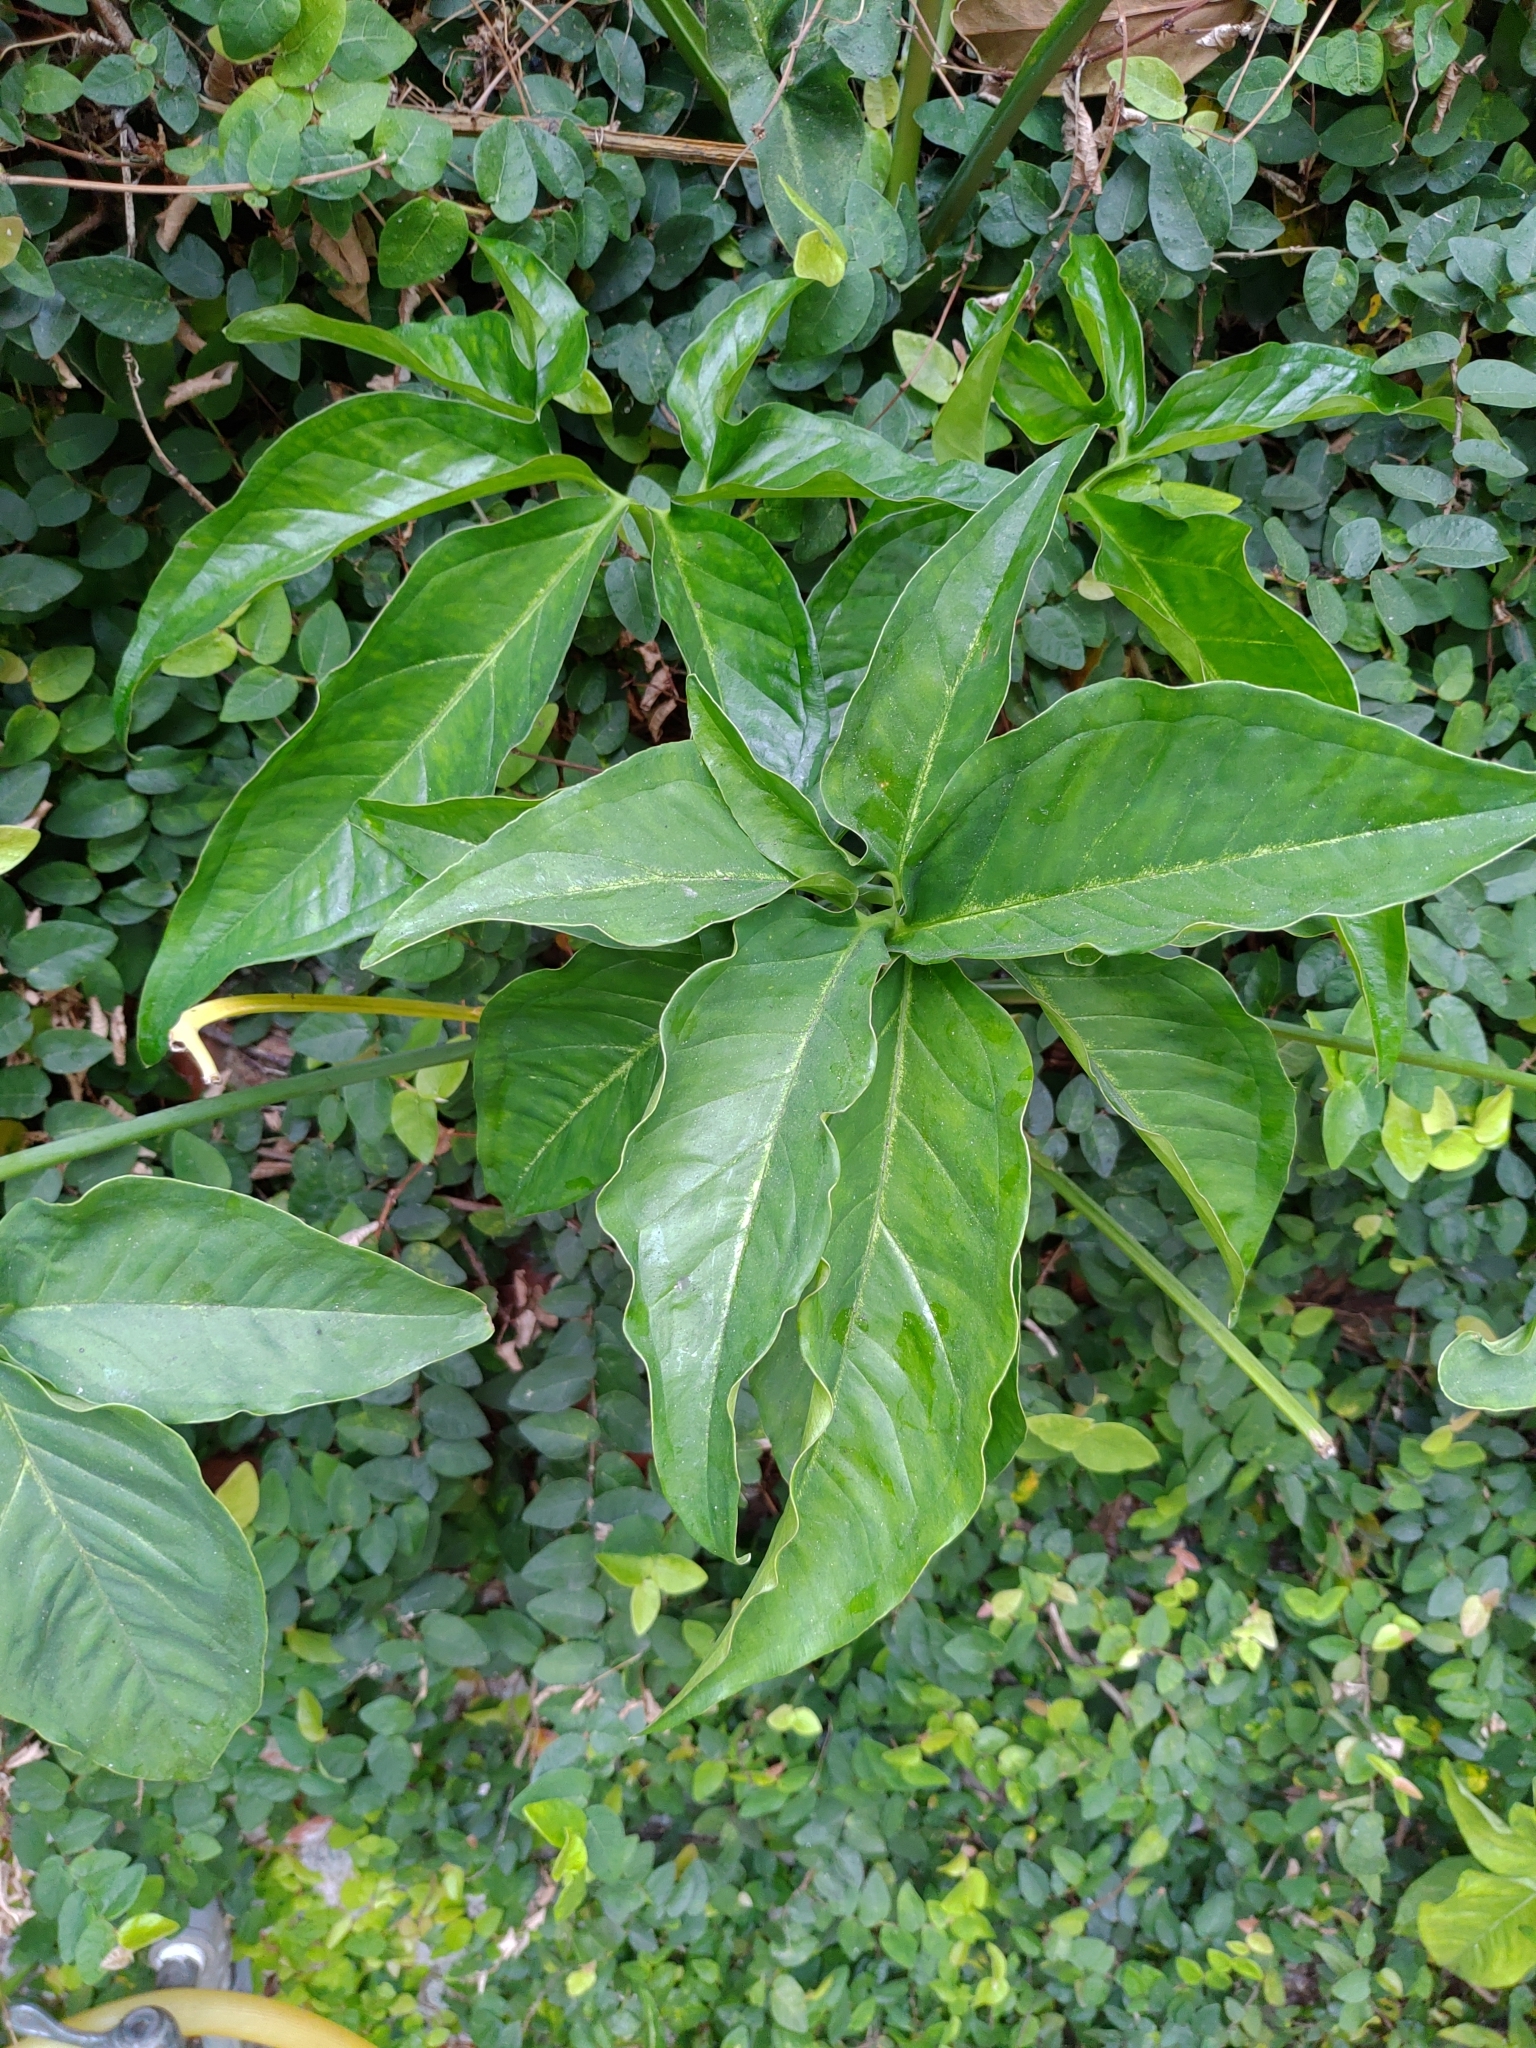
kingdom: Plantae
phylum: Tracheophyta
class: Liliopsida
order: Alismatales
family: Araceae
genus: Syngonium
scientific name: Syngonium angustatum
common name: Fivefingers
